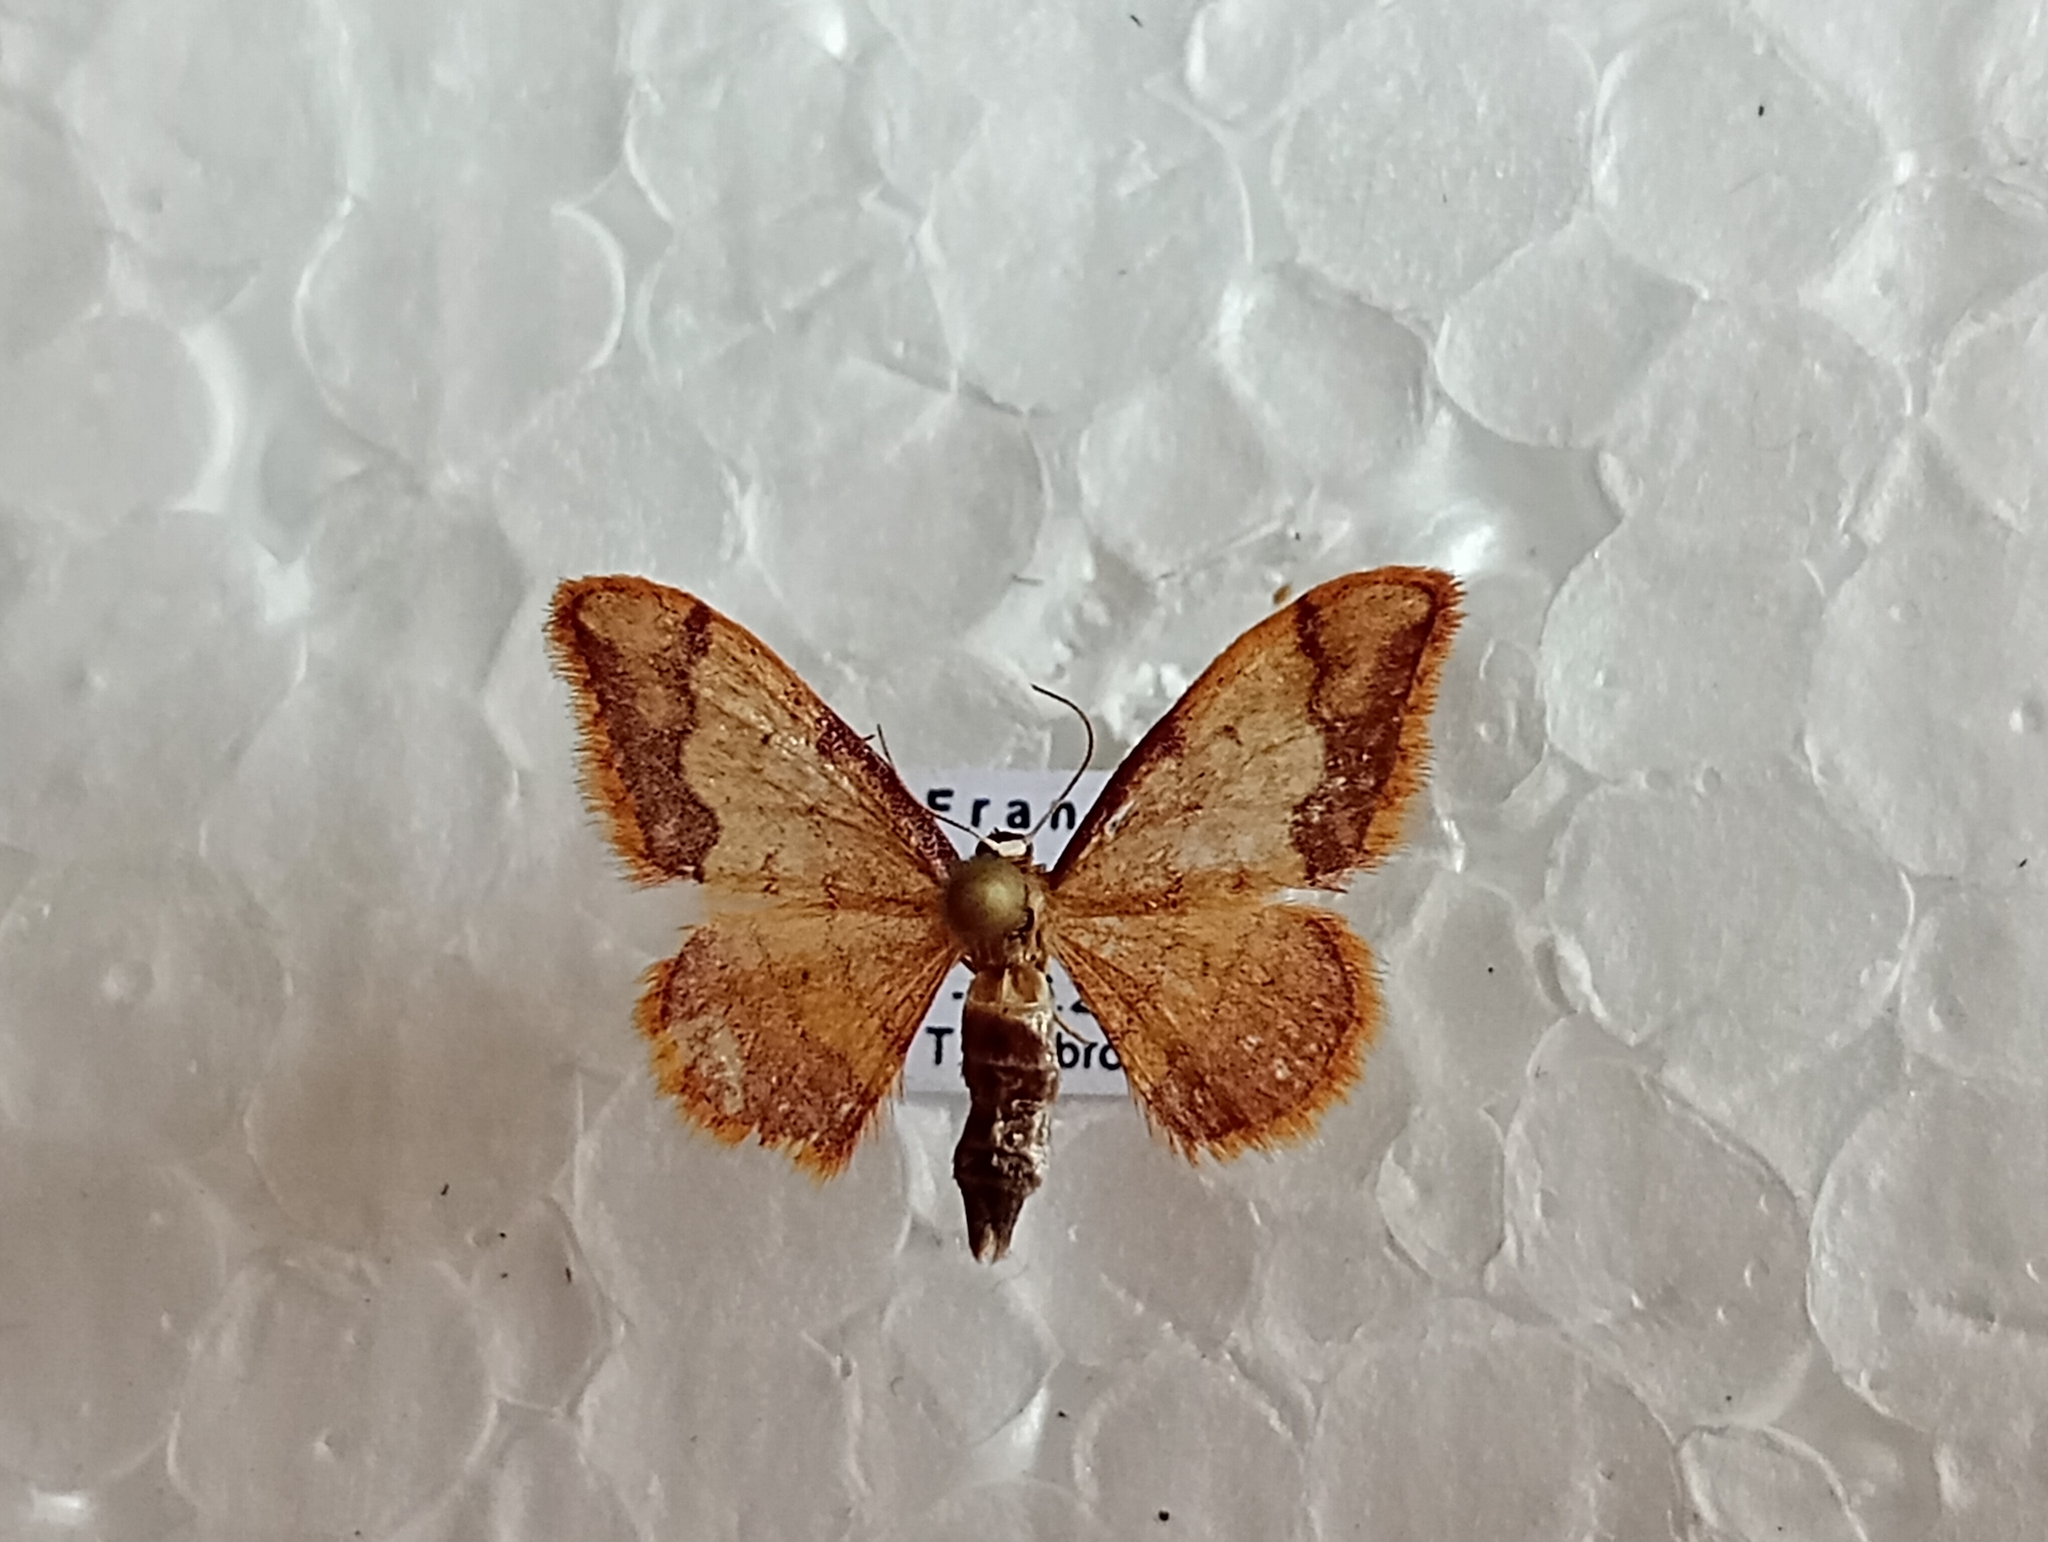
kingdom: Animalia
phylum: Arthropoda
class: Insecta
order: Lepidoptera
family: Geometridae
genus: Idaea
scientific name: Idaea ostrinaria
